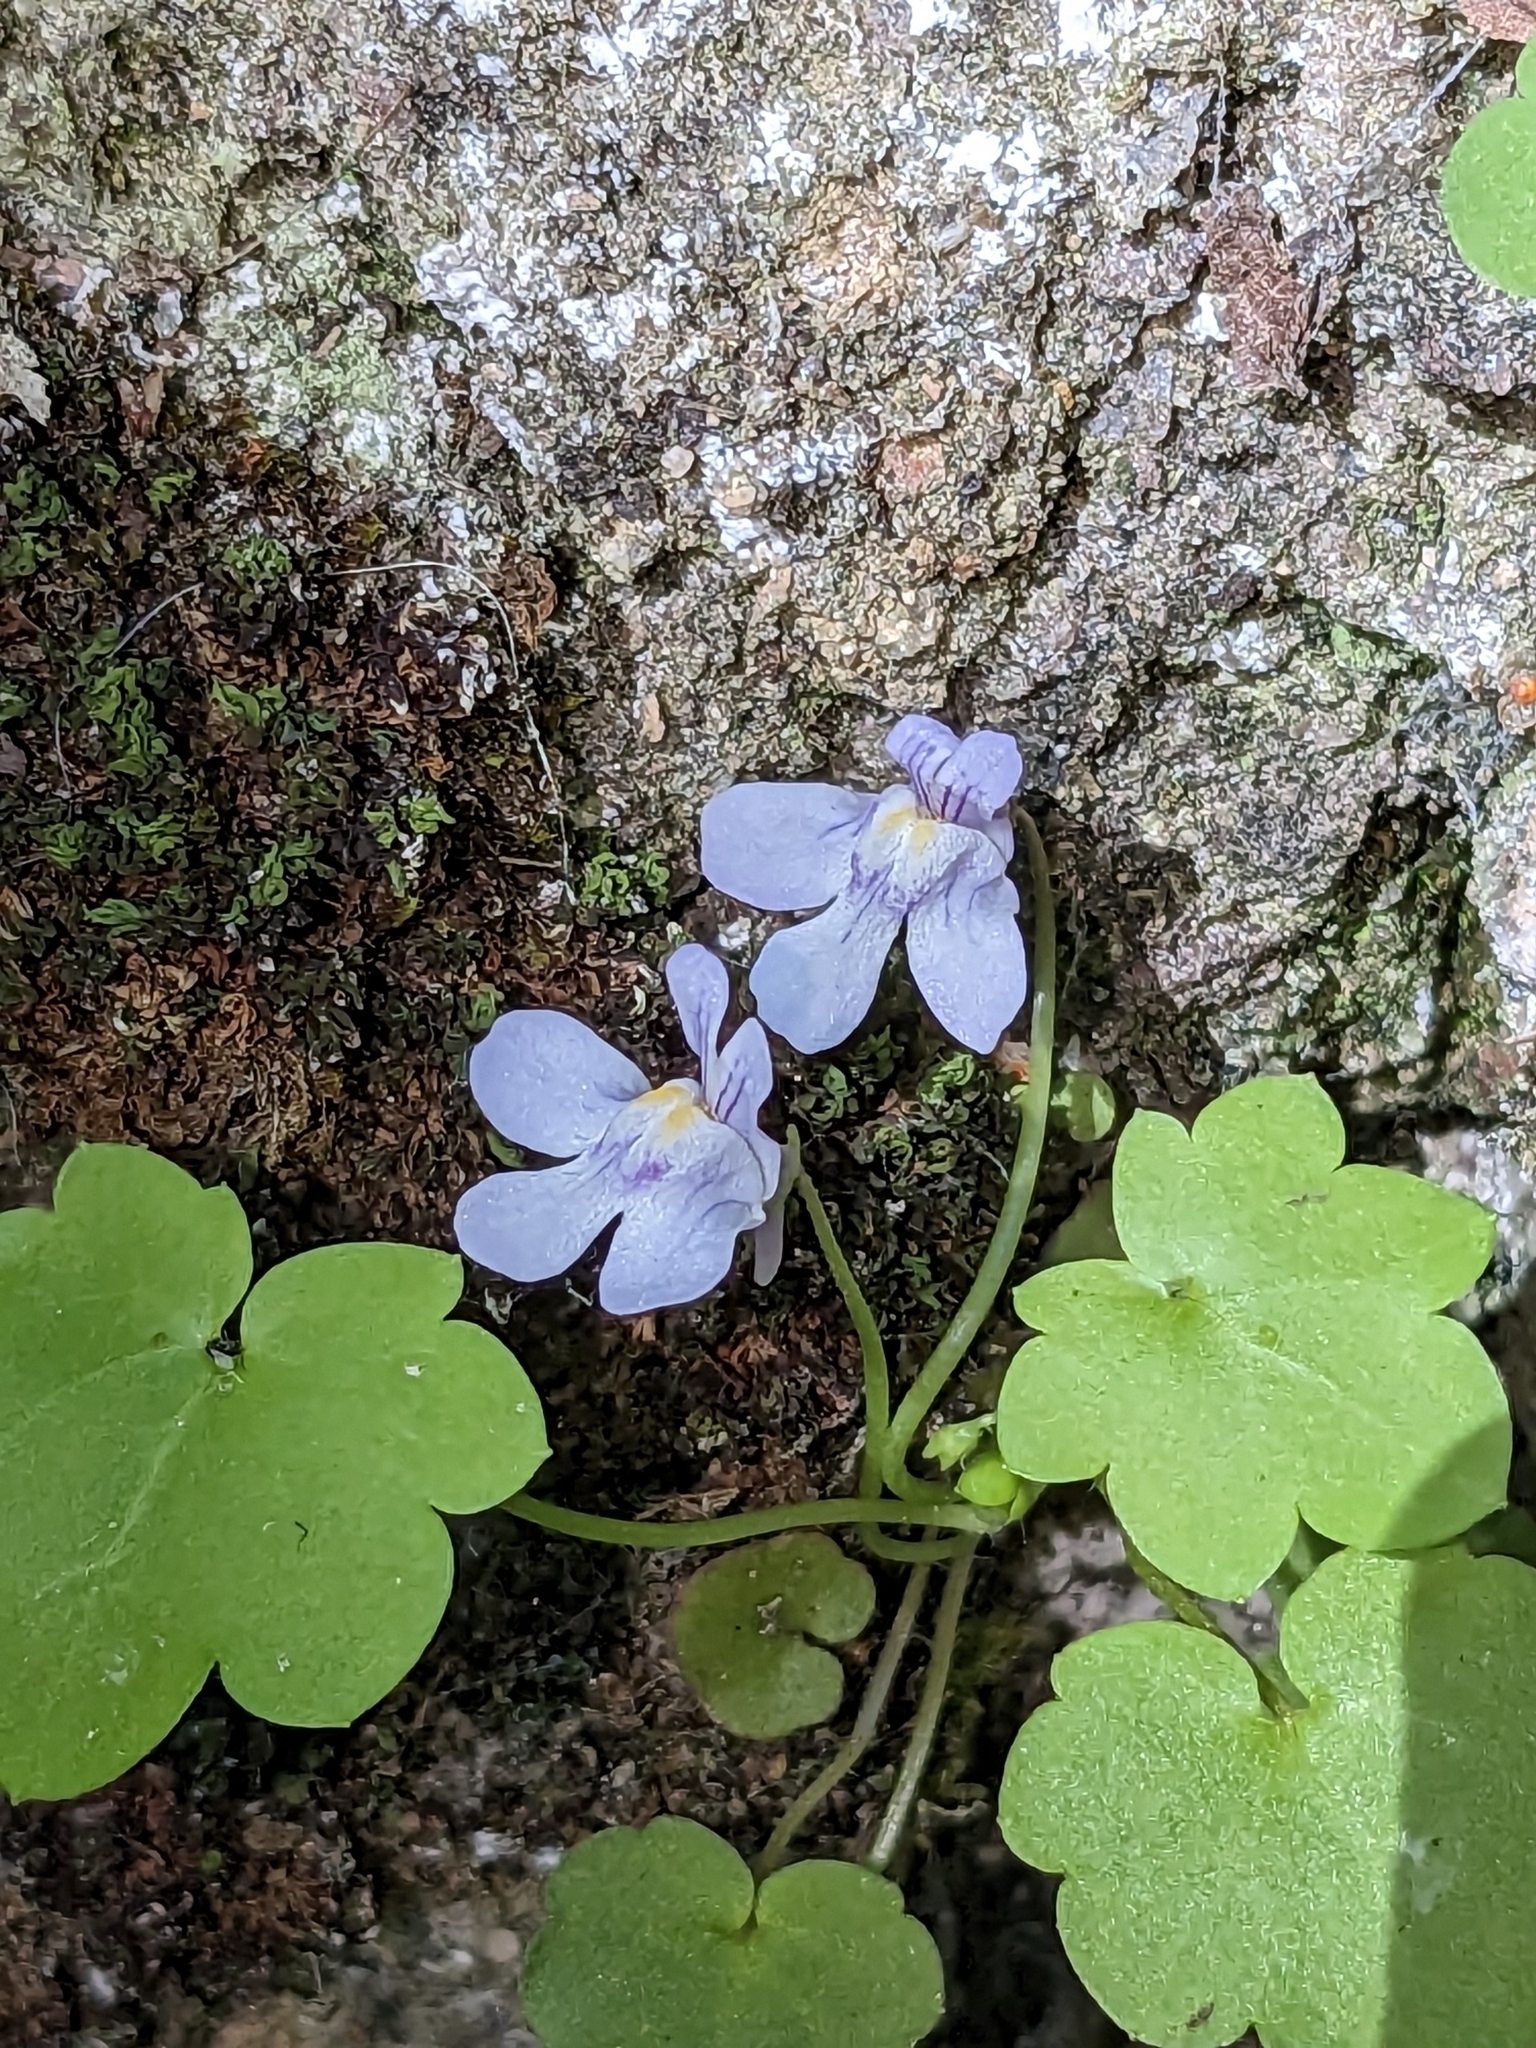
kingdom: Plantae
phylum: Tracheophyta
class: Magnoliopsida
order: Lamiales
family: Plantaginaceae
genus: Cymbalaria
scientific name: Cymbalaria muralis
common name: Ivy-leaved toadflax
